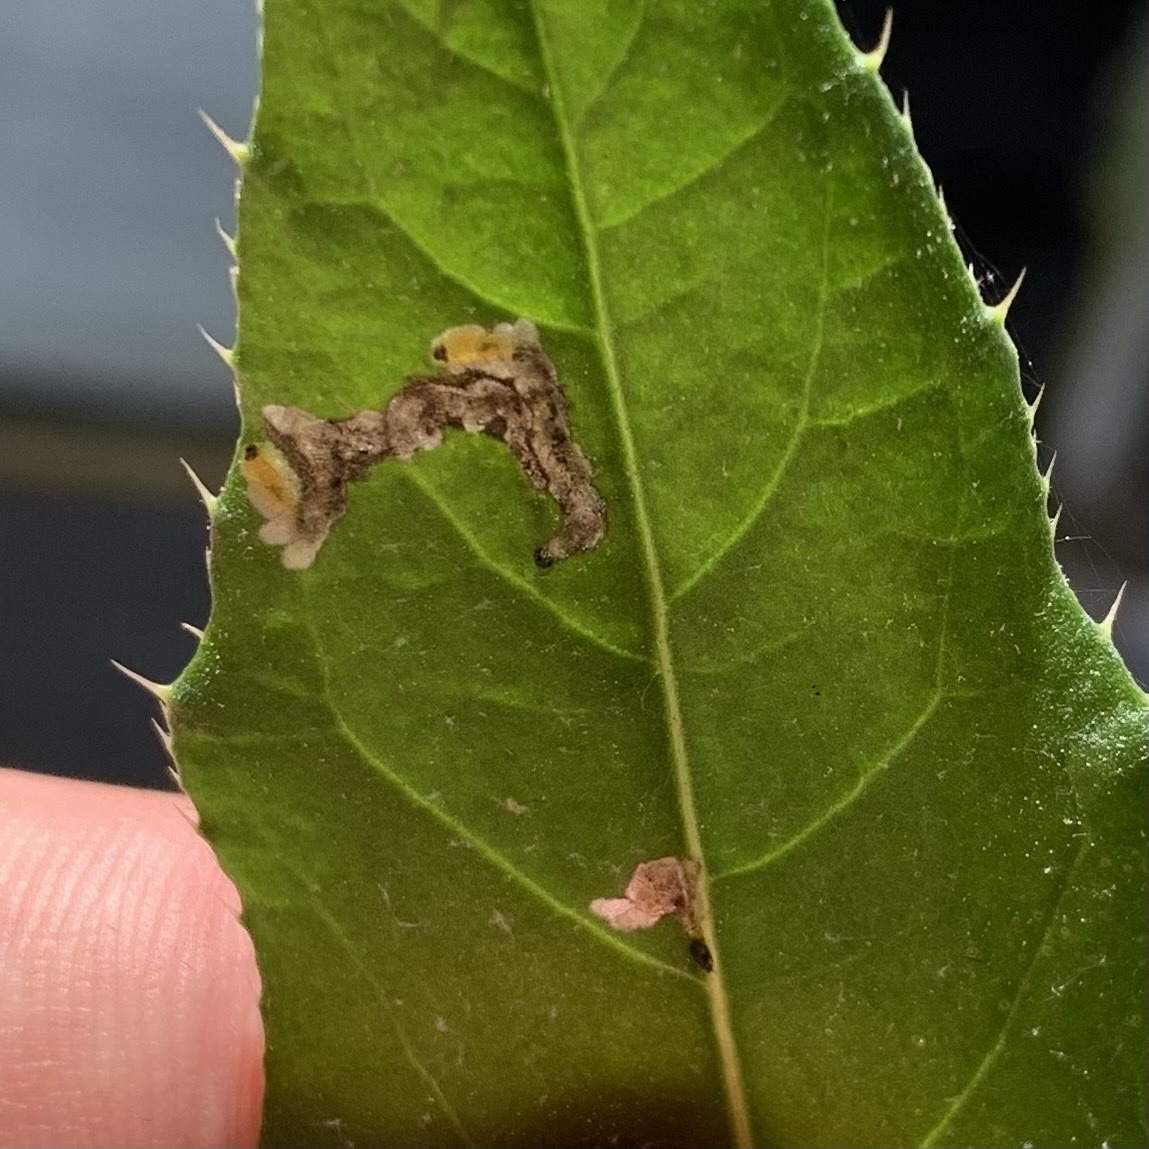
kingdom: Animalia
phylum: Arthropoda
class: Insecta
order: Coleoptera
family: Chrysomelidae
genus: Oulema
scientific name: Oulema palustris
